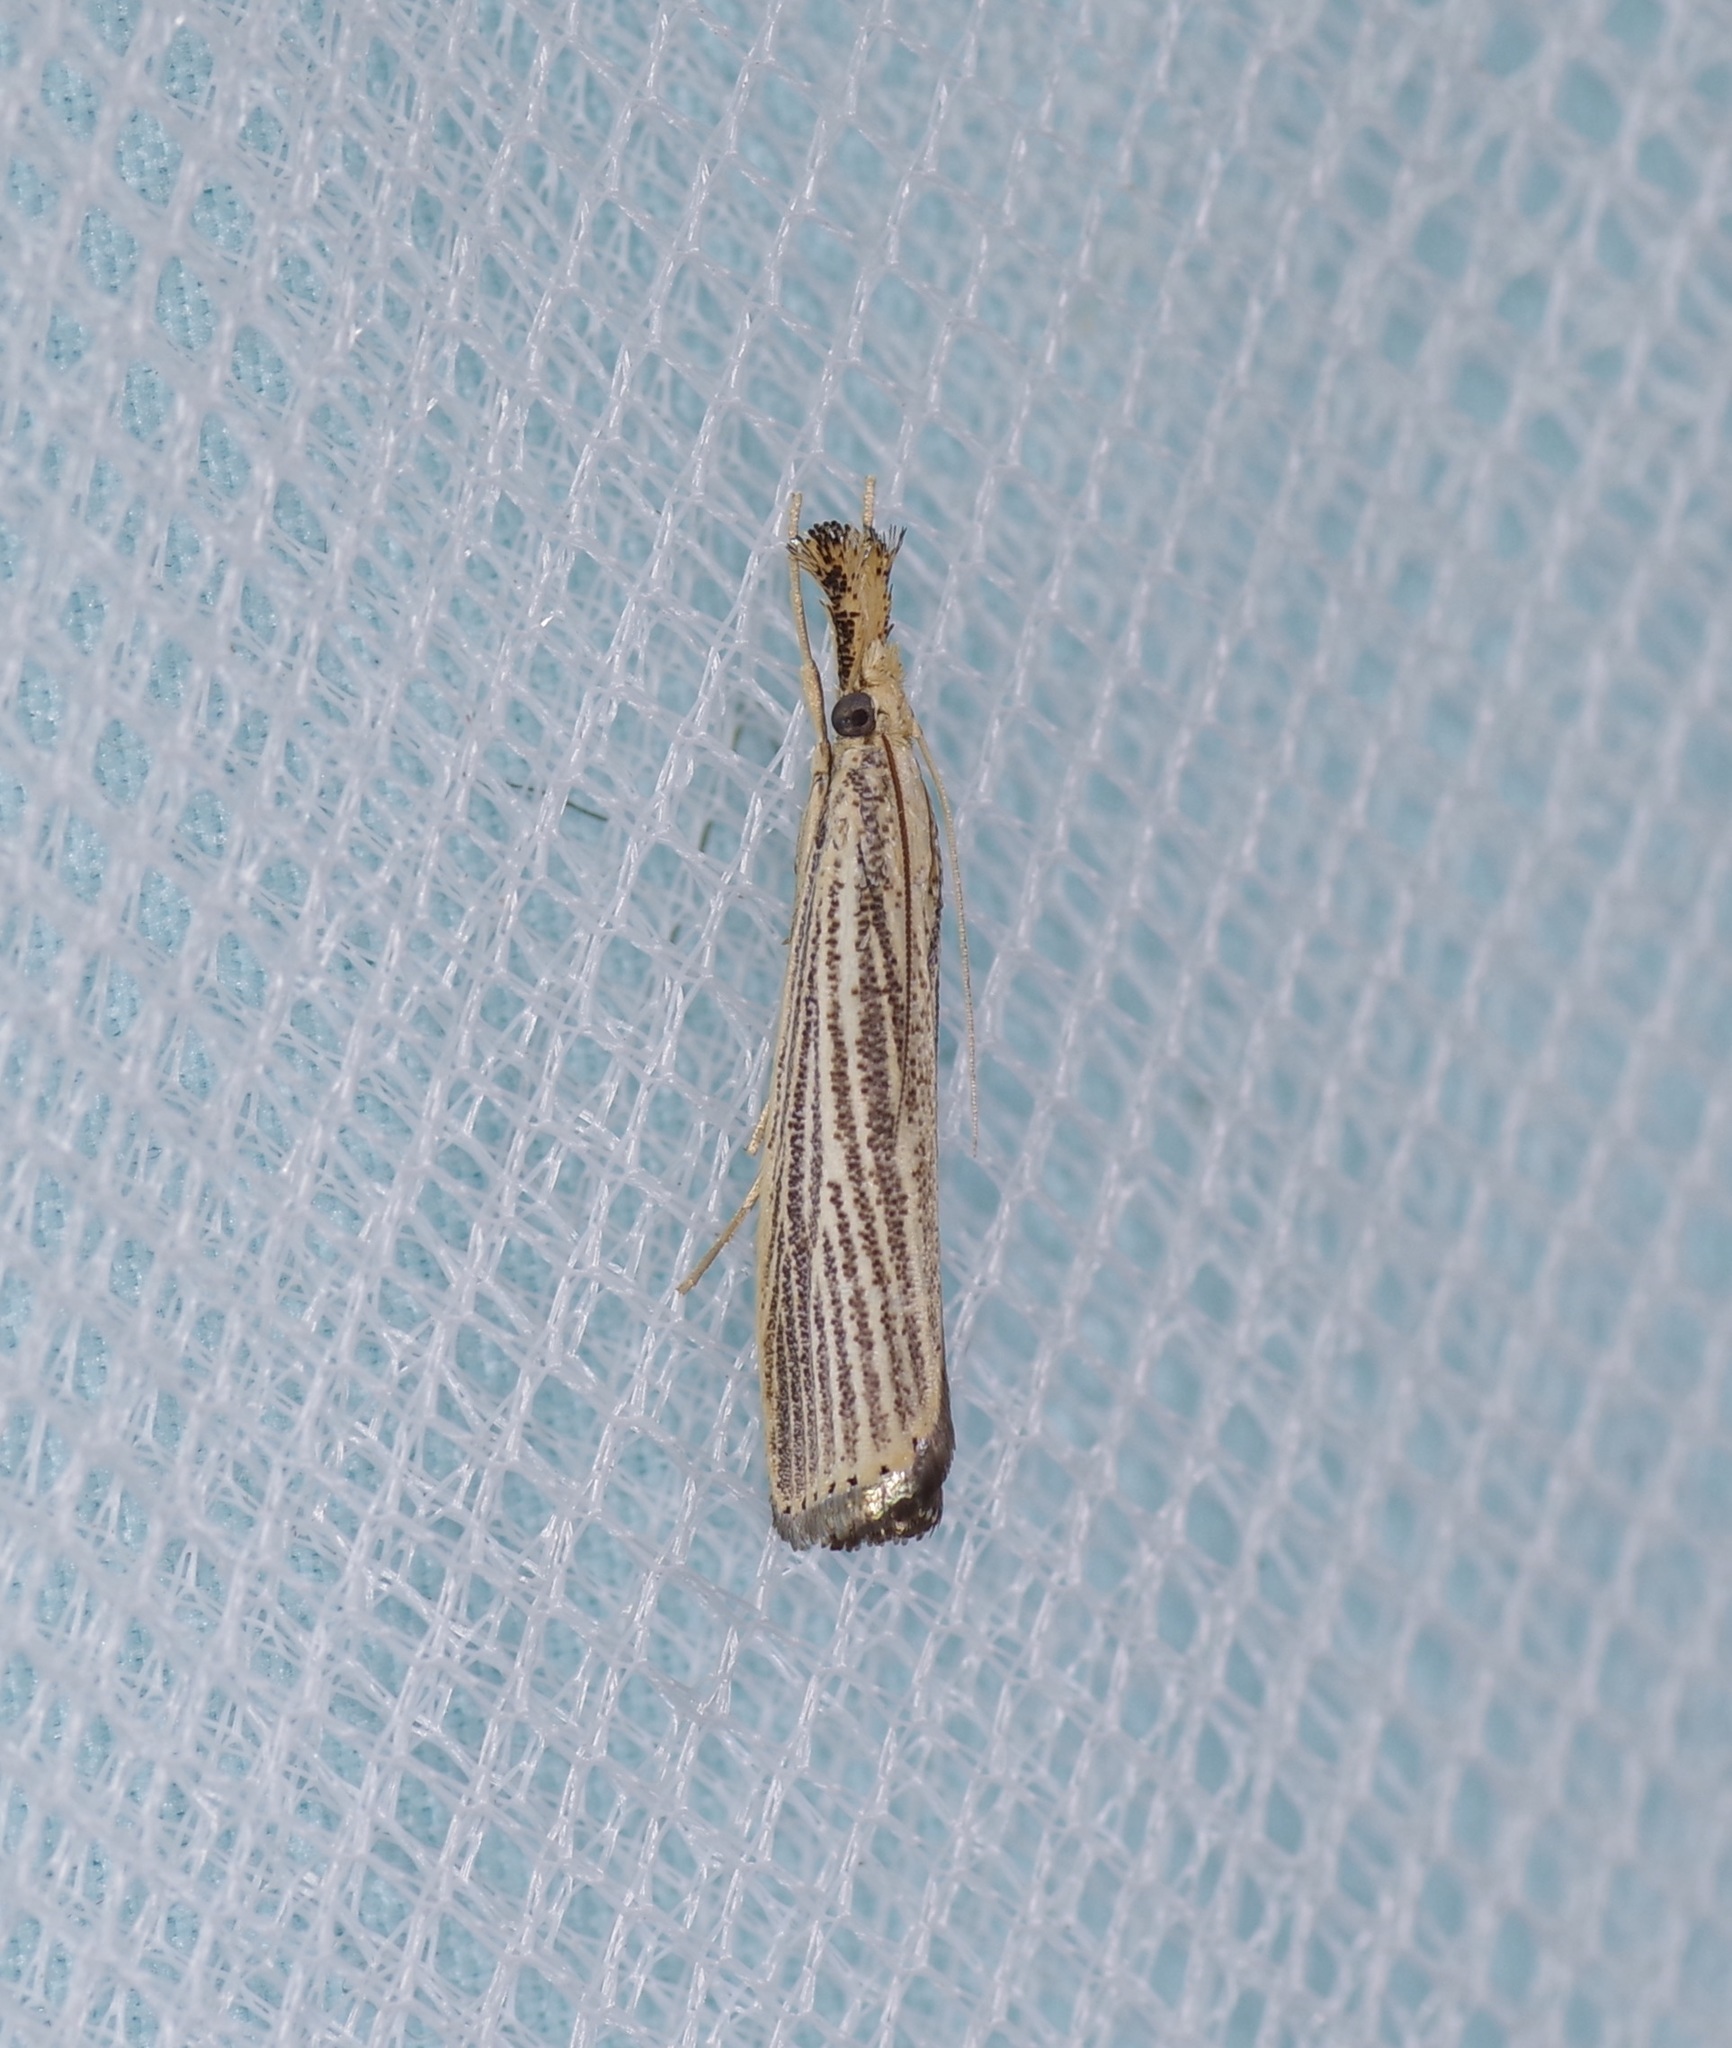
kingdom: Animalia
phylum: Arthropoda
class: Insecta
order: Lepidoptera
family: Crambidae
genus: Agriphila
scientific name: Agriphila vulgivagellus
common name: Vagabond crambus moth
